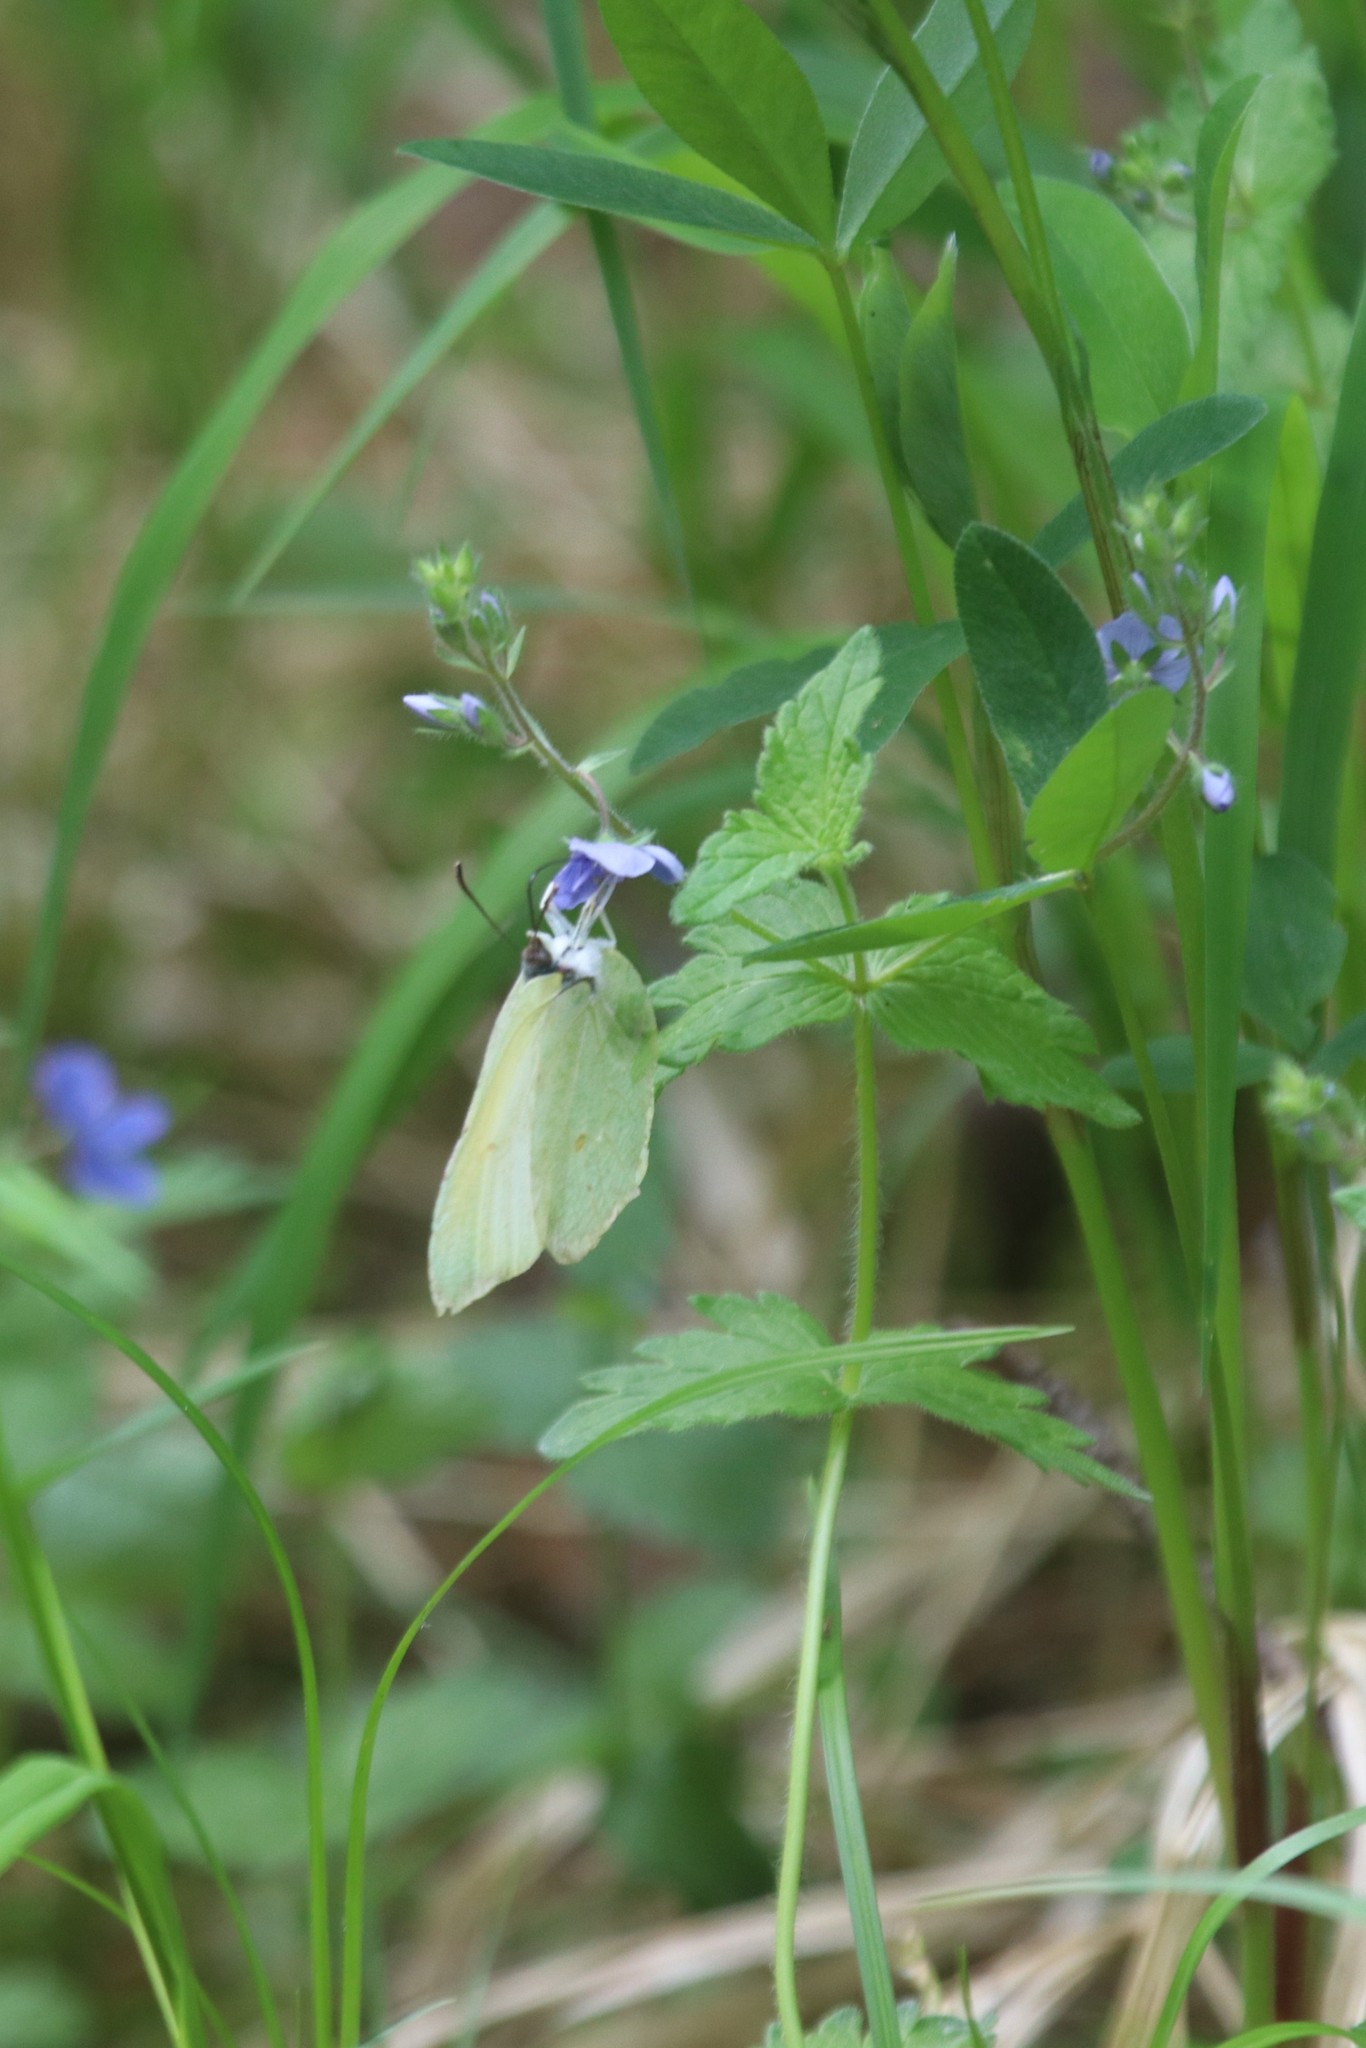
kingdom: Animalia
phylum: Arthropoda
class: Insecta
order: Lepidoptera
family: Pieridae
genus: Gonepteryx
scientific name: Gonepteryx rhamni
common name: Brimstone
